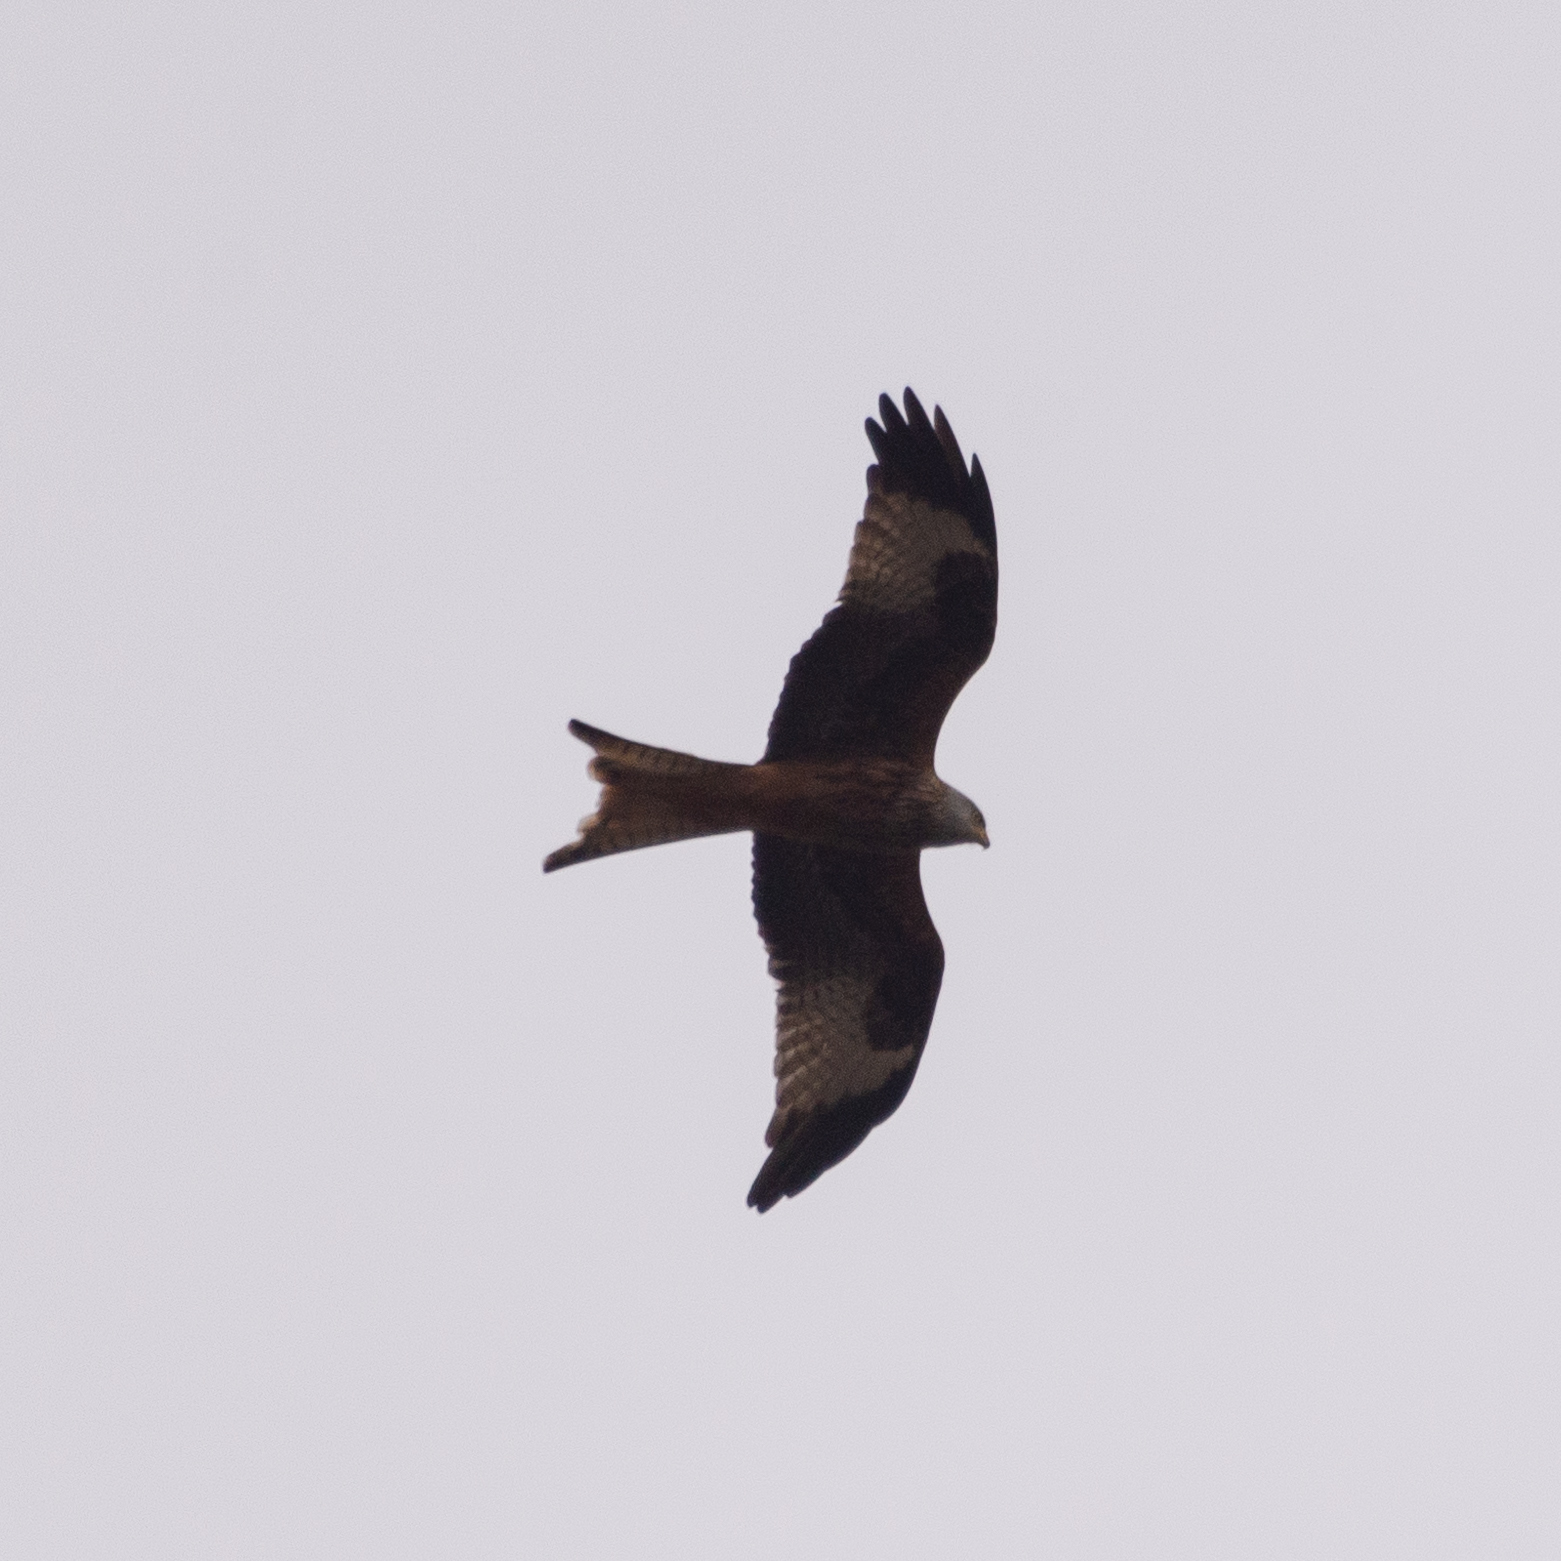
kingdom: Animalia
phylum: Chordata
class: Aves
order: Accipitriformes
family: Accipitridae
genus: Milvus
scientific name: Milvus milvus
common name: Red kite
